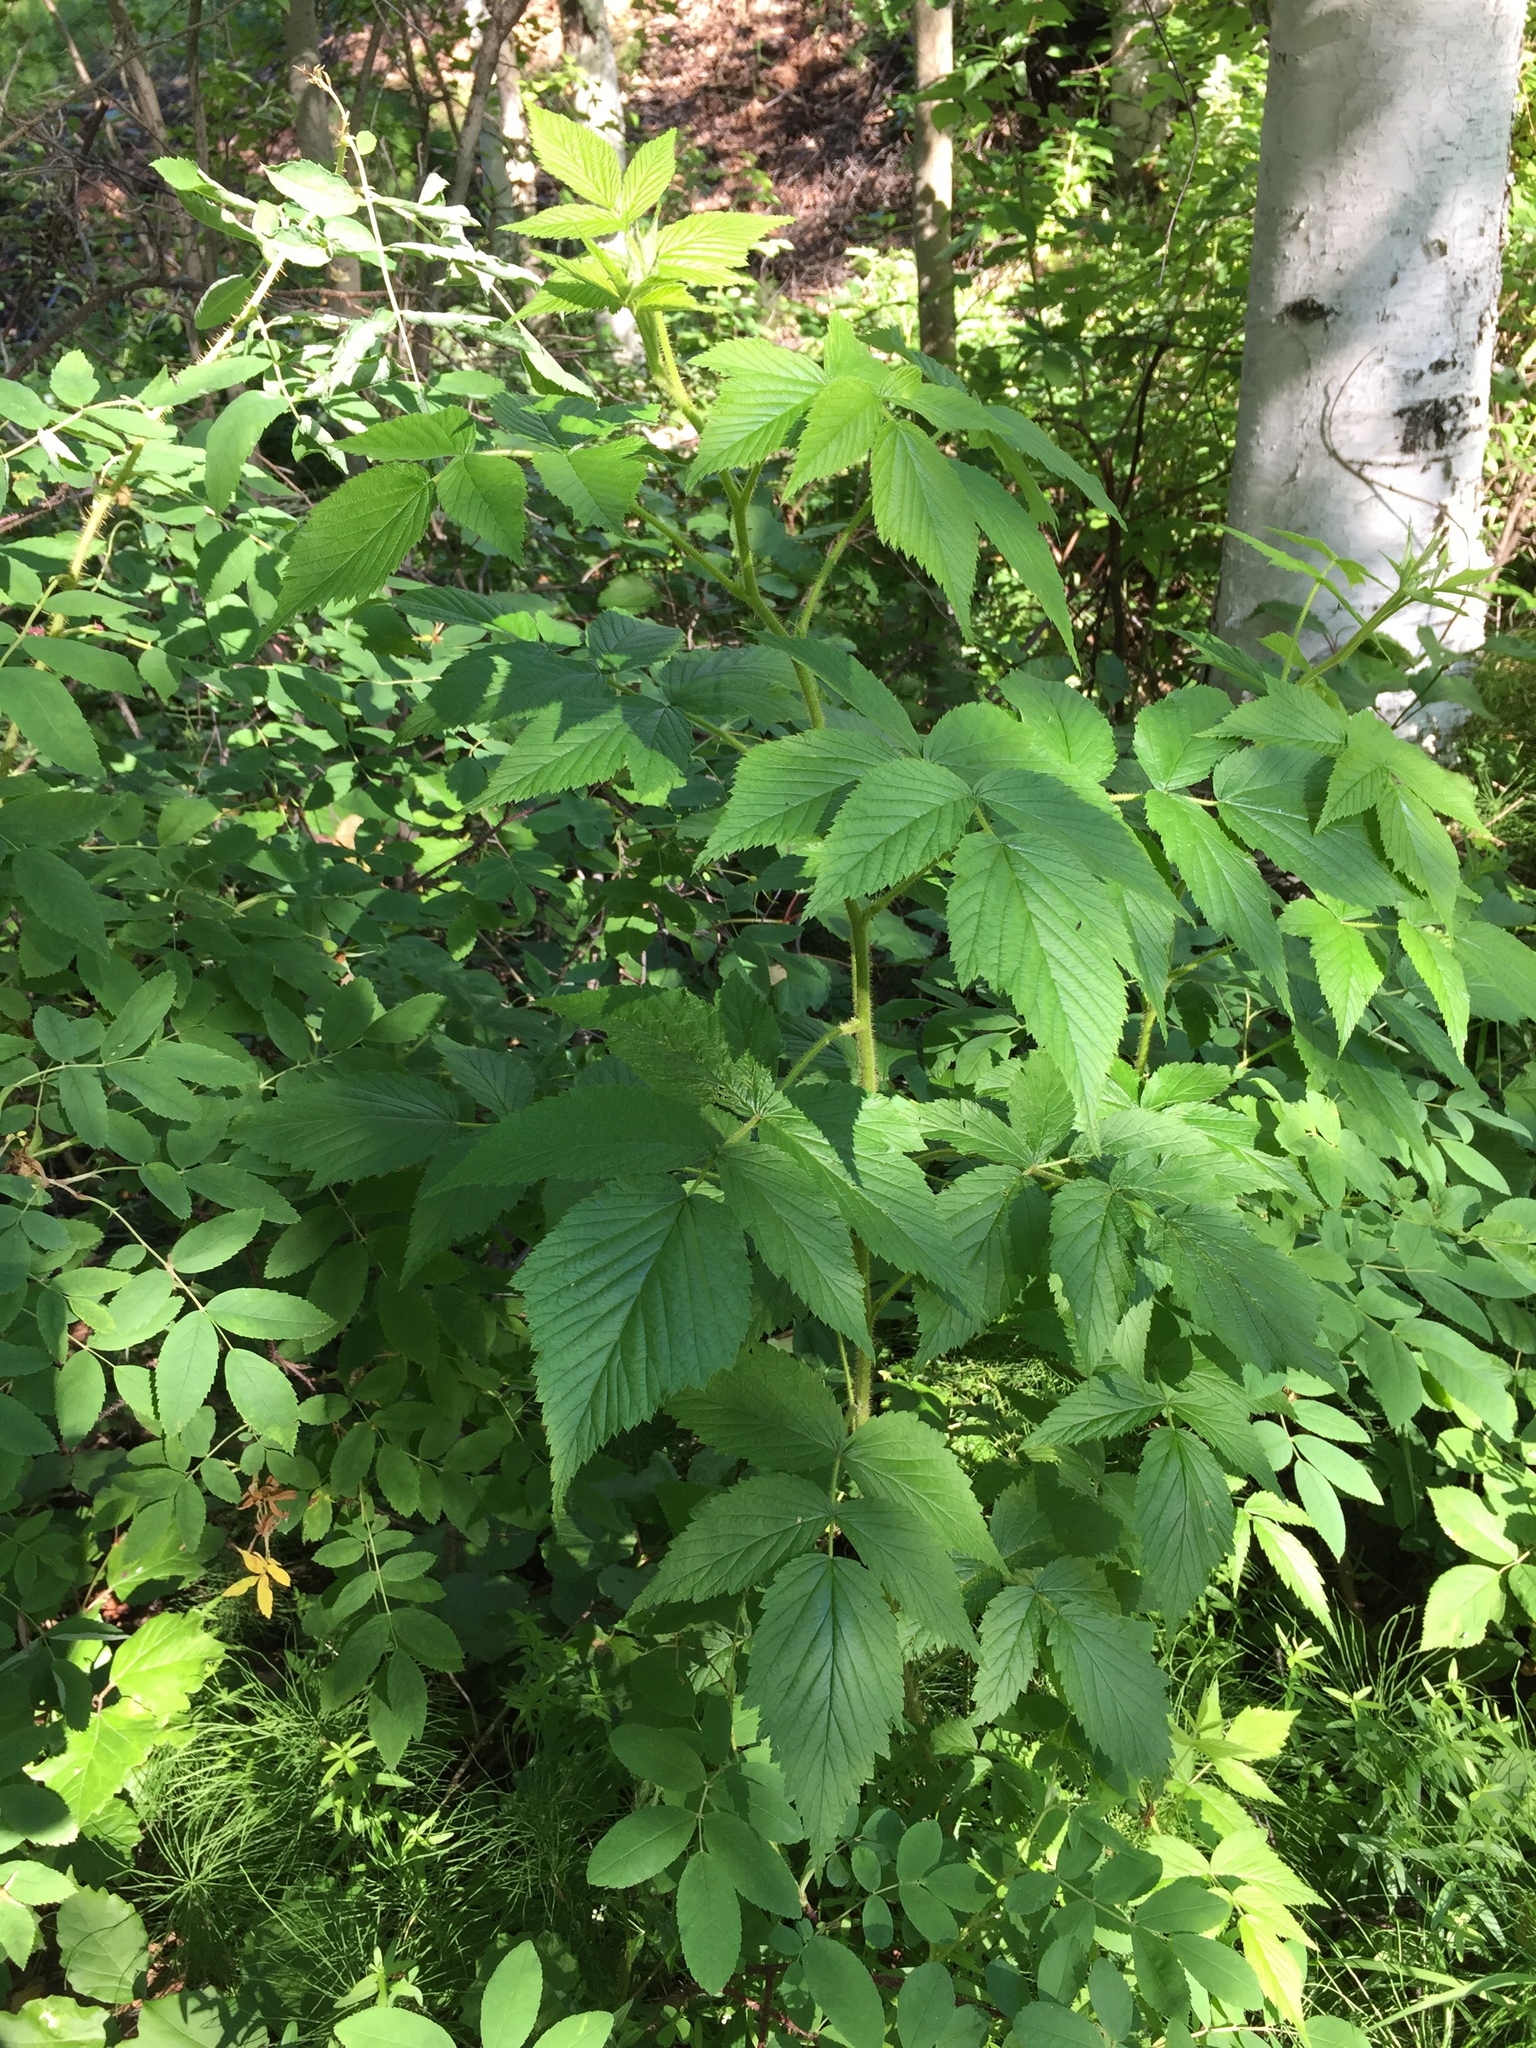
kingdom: Plantae
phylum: Tracheophyta
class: Magnoliopsida
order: Rosales
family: Rosaceae
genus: Rubus
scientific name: Rubus idaeus
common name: Raspberry
